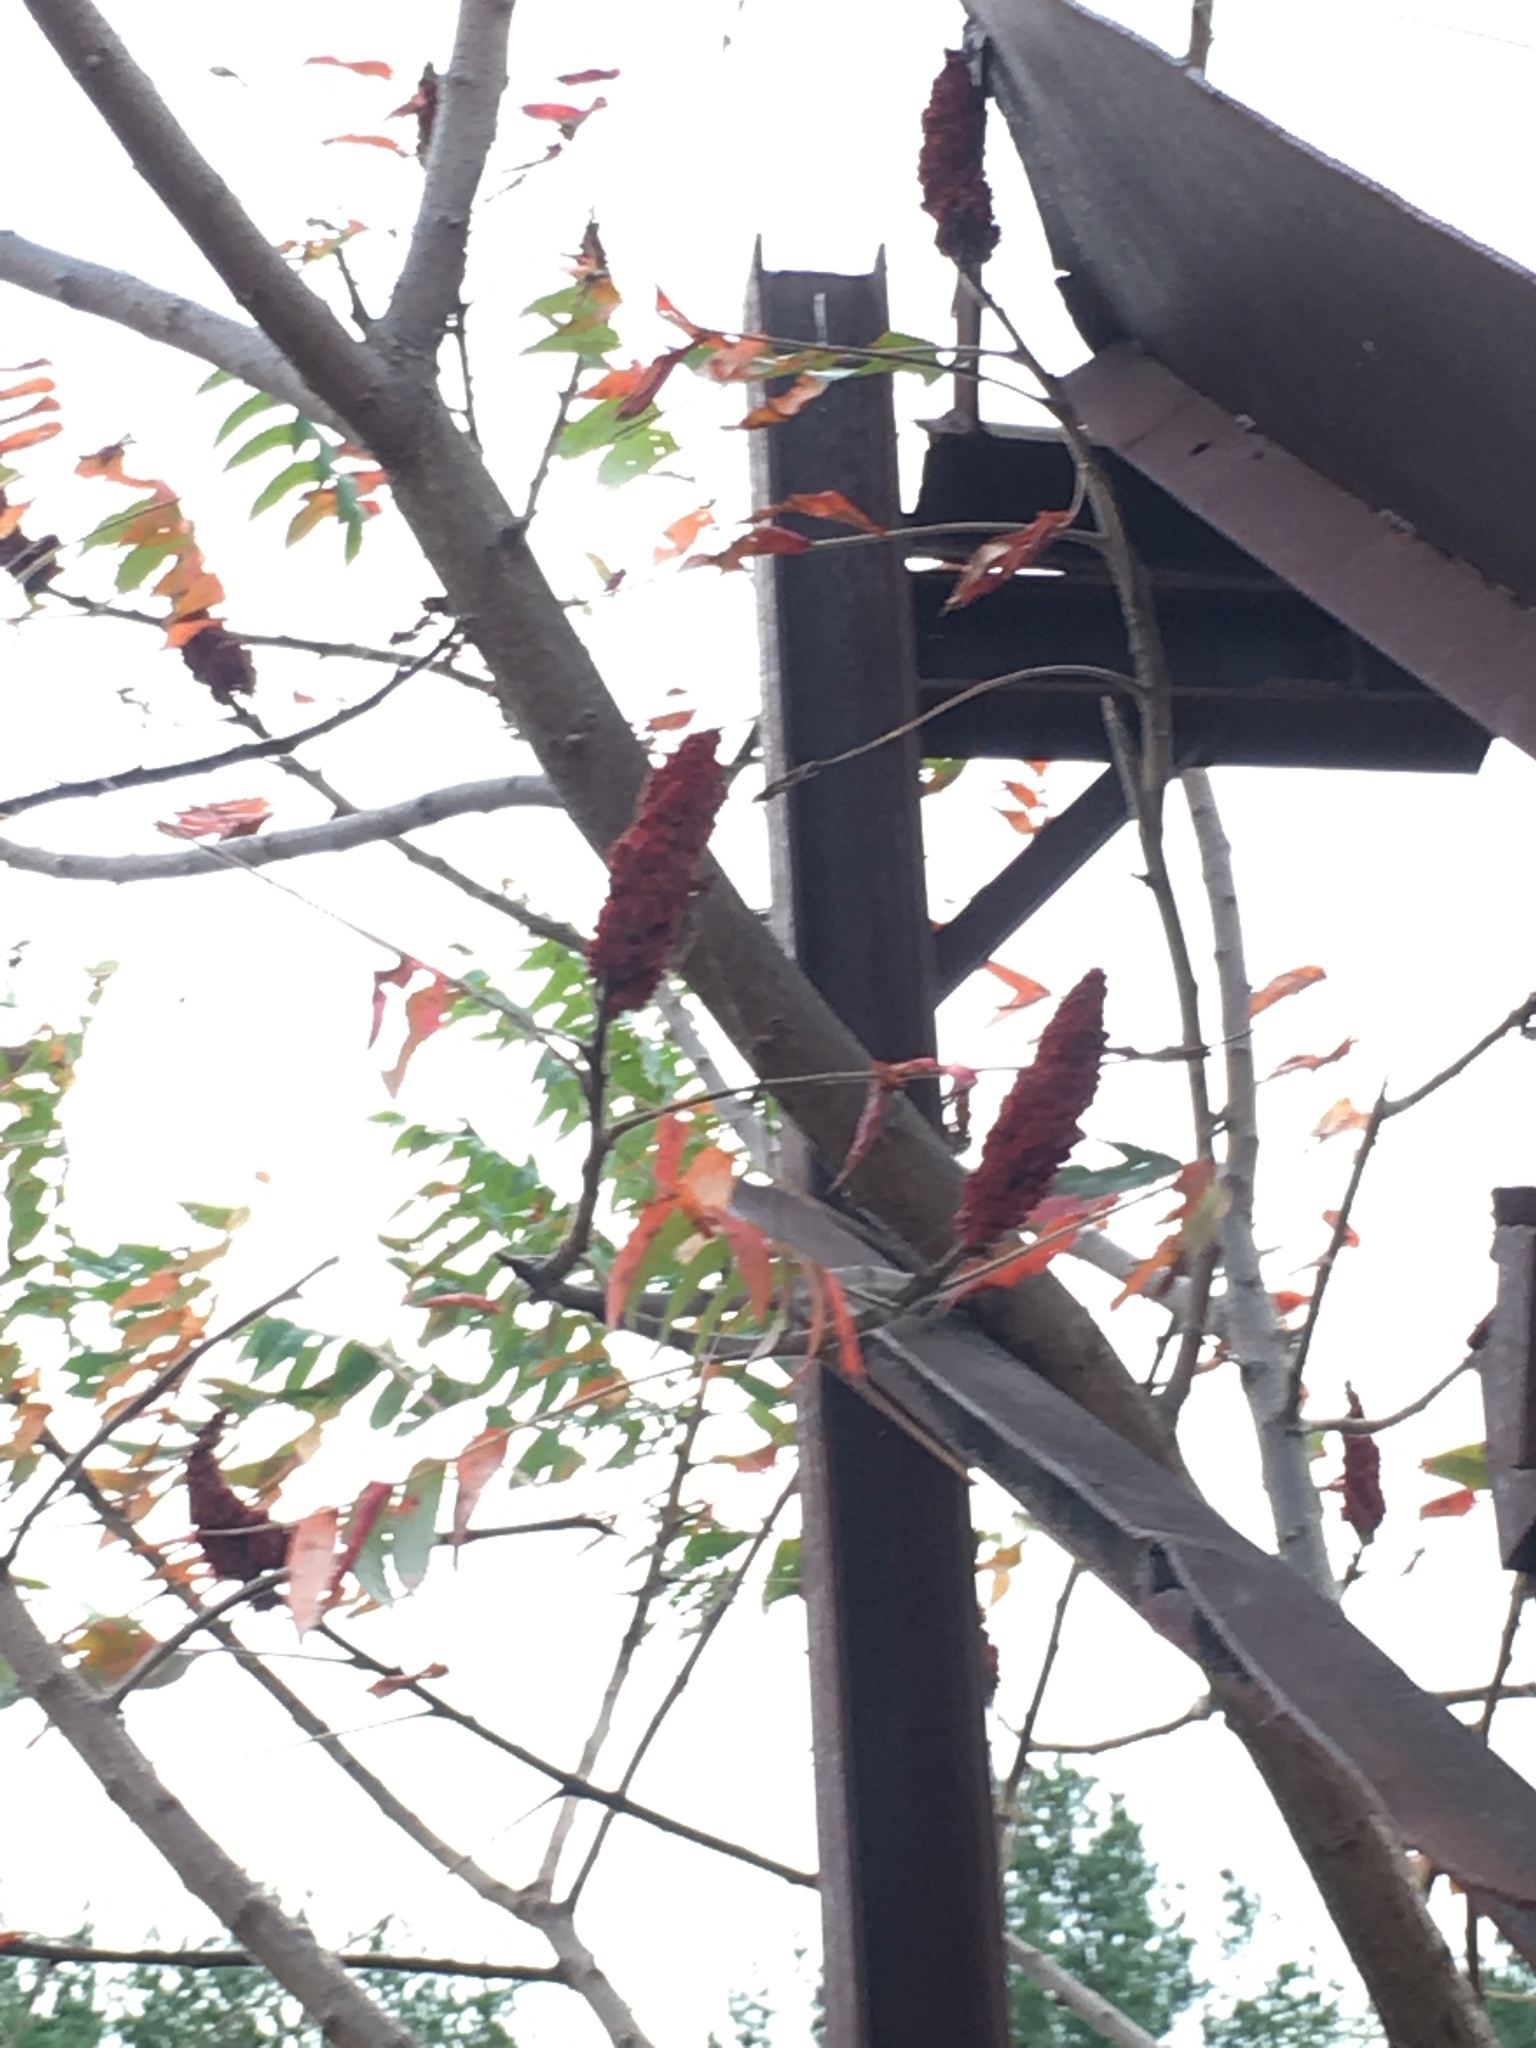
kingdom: Plantae
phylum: Tracheophyta
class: Magnoliopsida
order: Sapindales
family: Anacardiaceae
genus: Rhus
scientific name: Rhus typhina
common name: Staghorn sumac
